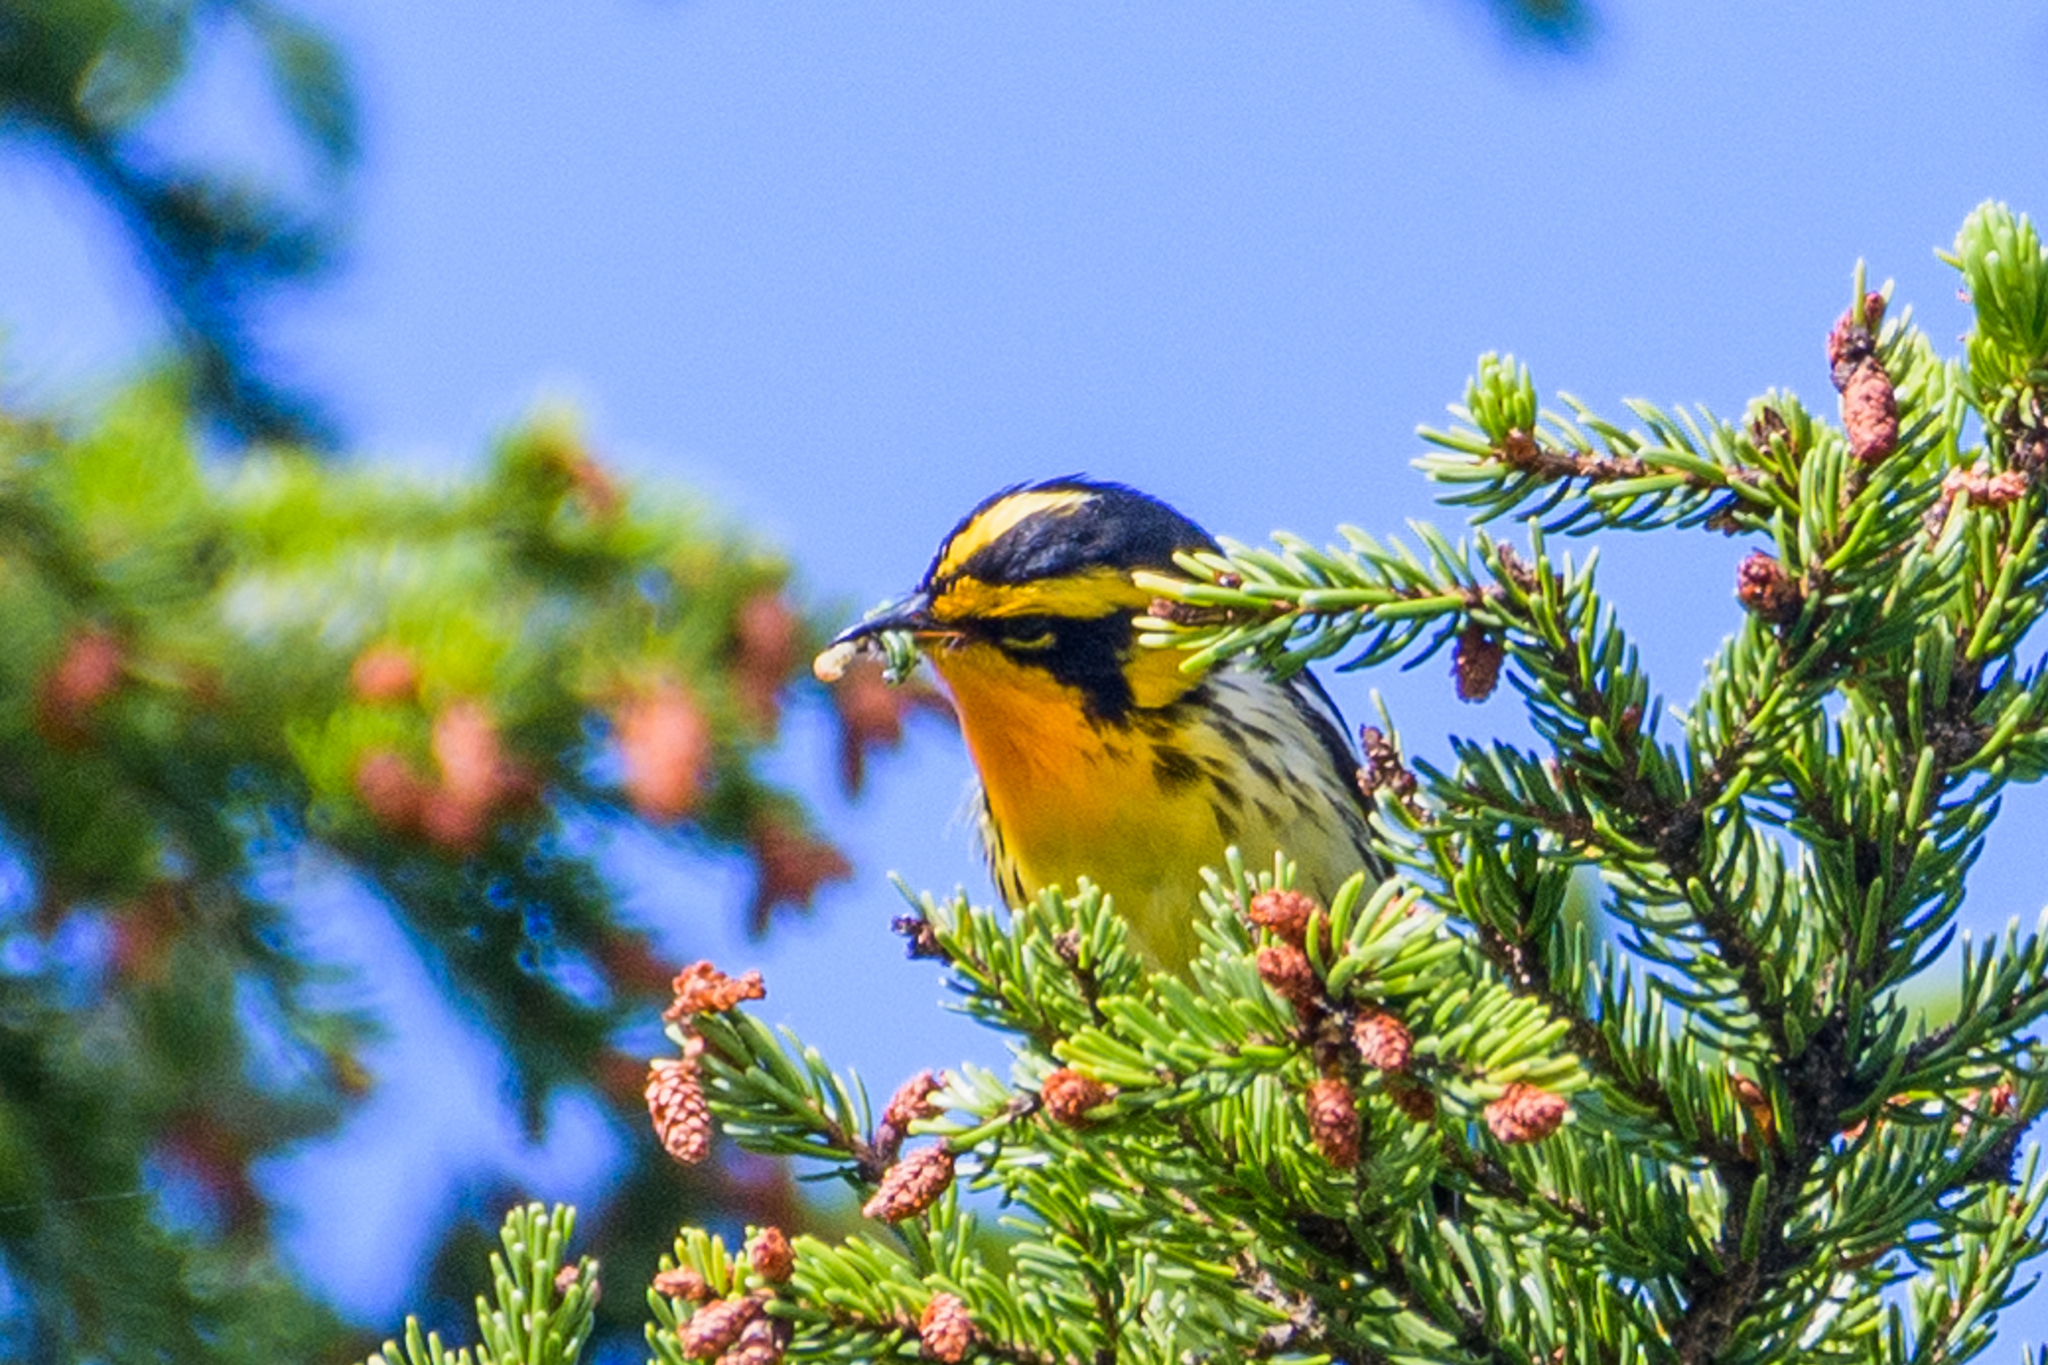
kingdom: Animalia
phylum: Chordata
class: Aves
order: Passeriformes
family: Parulidae
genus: Setophaga
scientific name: Setophaga fusca
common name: Blackburnian warbler
